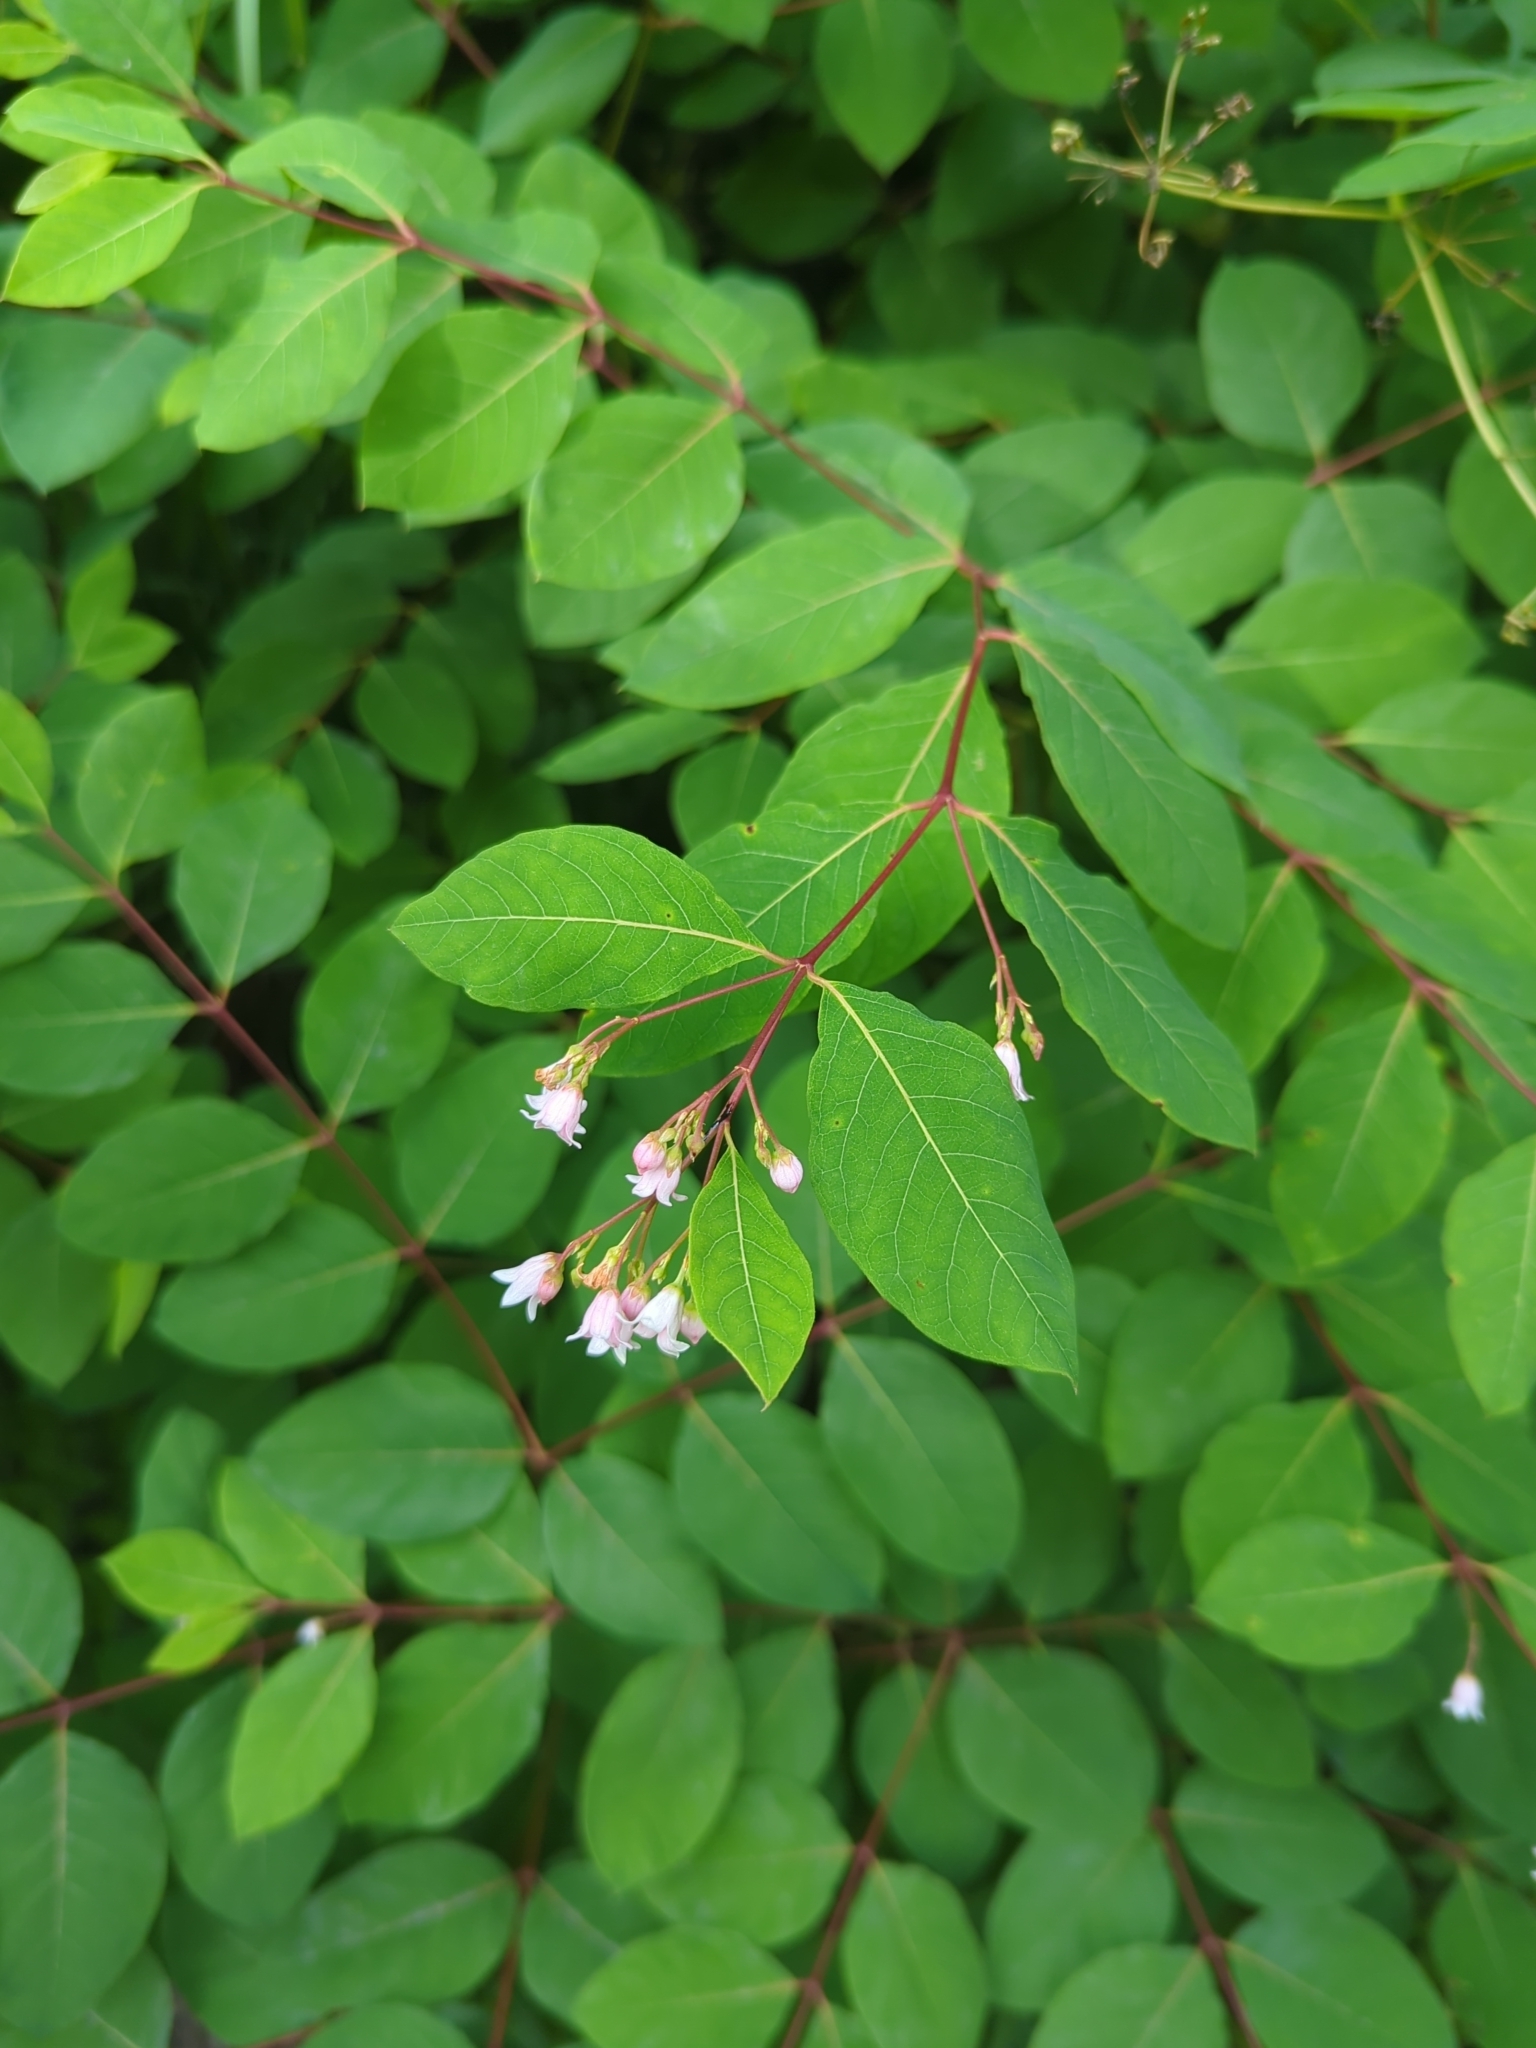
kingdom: Plantae
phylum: Tracheophyta
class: Magnoliopsida
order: Gentianales
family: Apocynaceae
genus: Apocynum
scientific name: Apocynum androsaemifolium
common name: Spreading dogbane
